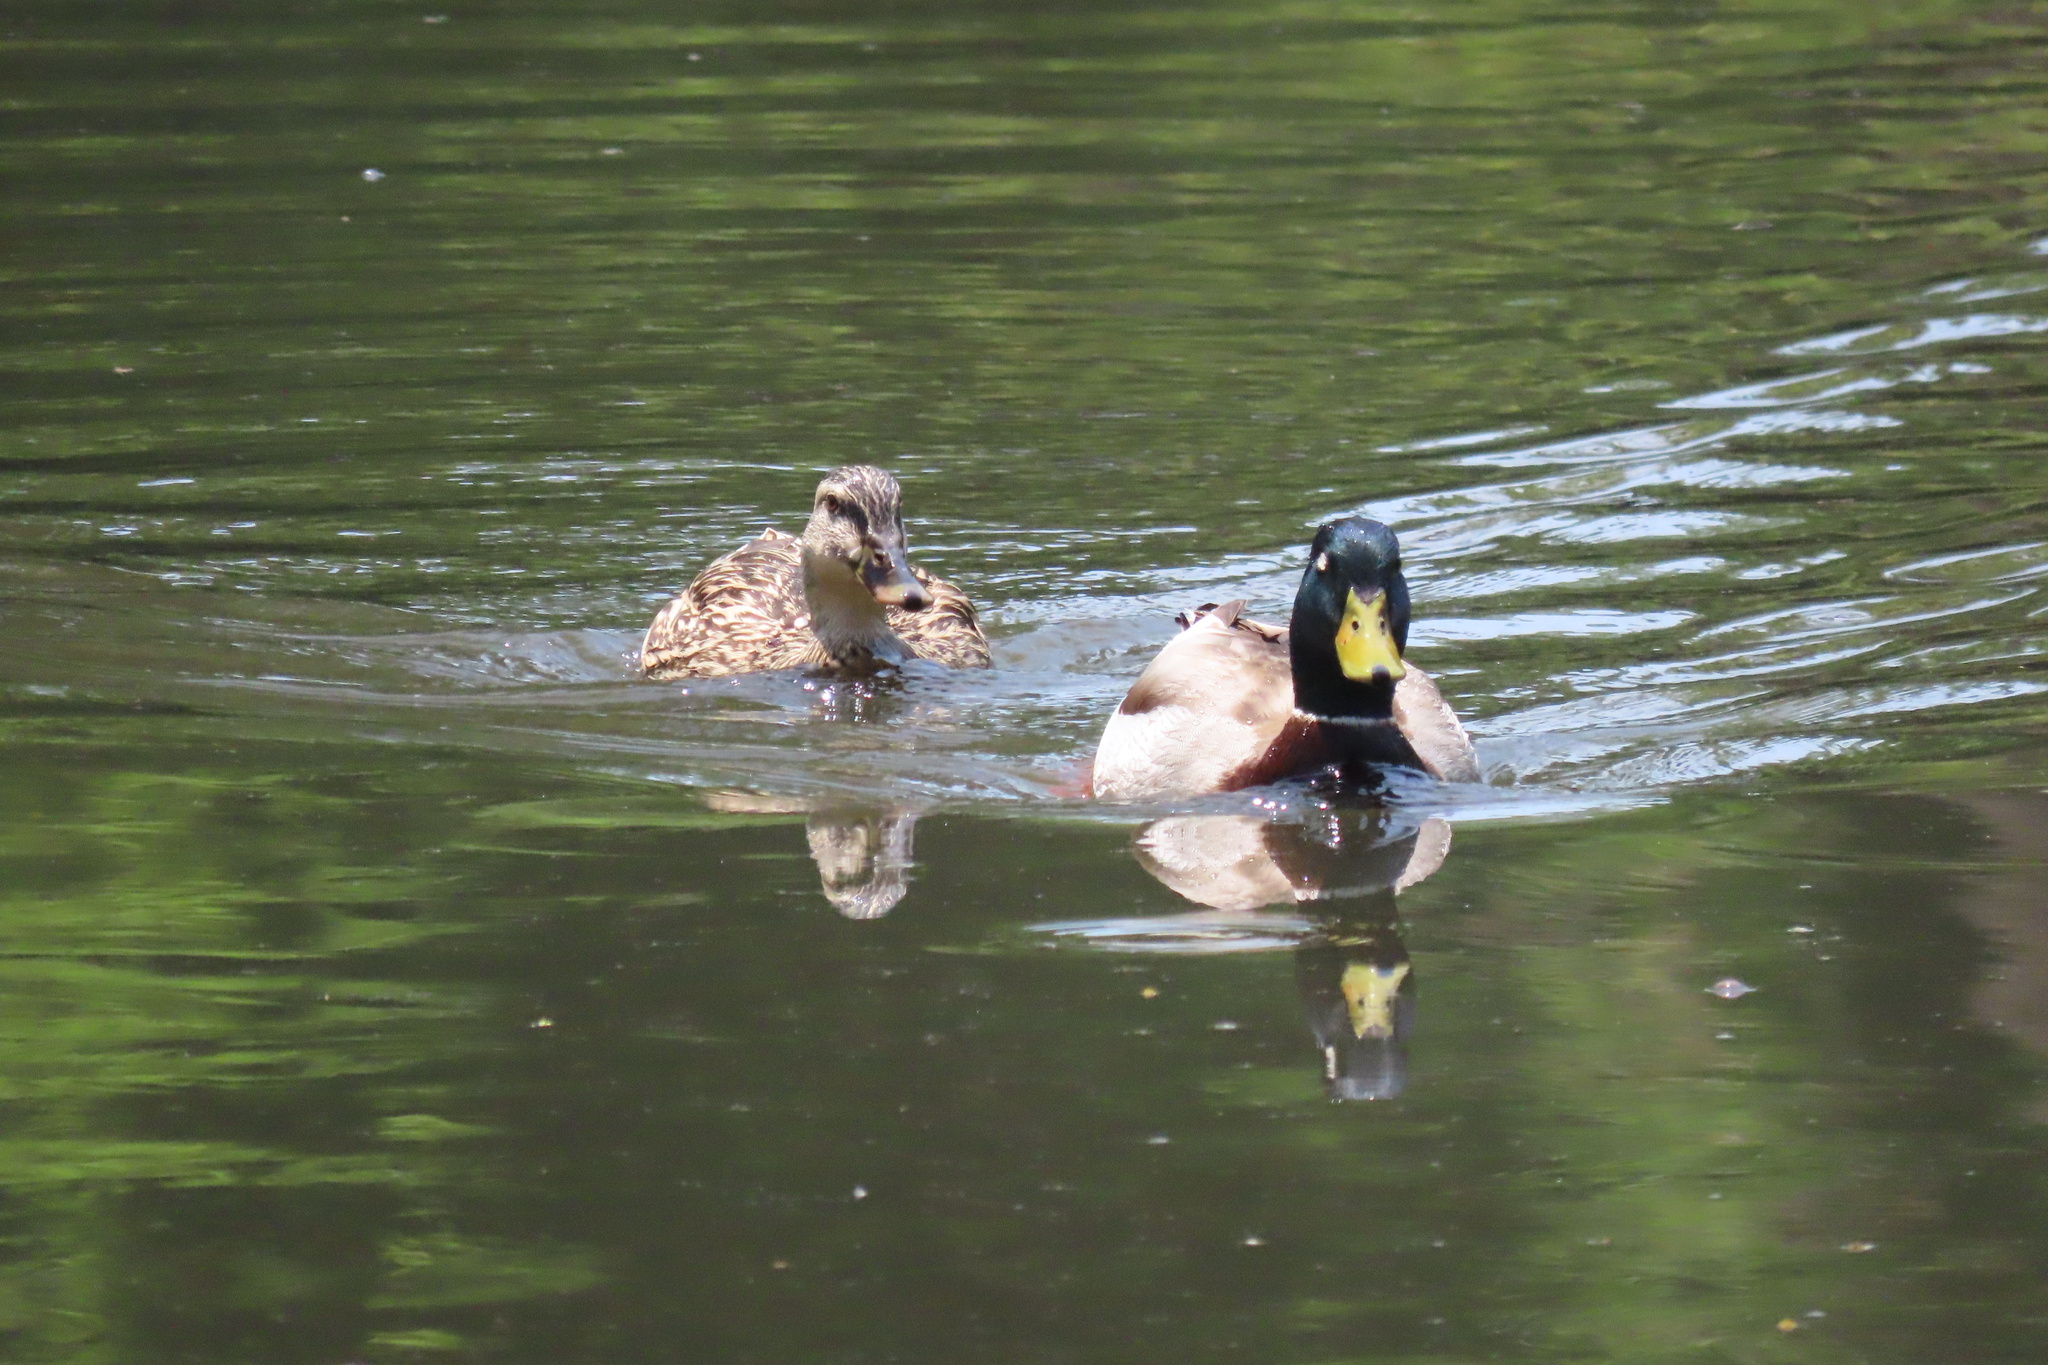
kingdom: Animalia
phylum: Chordata
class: Aves
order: Anseriformes
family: Anatidae
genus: Anas
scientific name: Anas platyrhynchos
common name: Mallard
